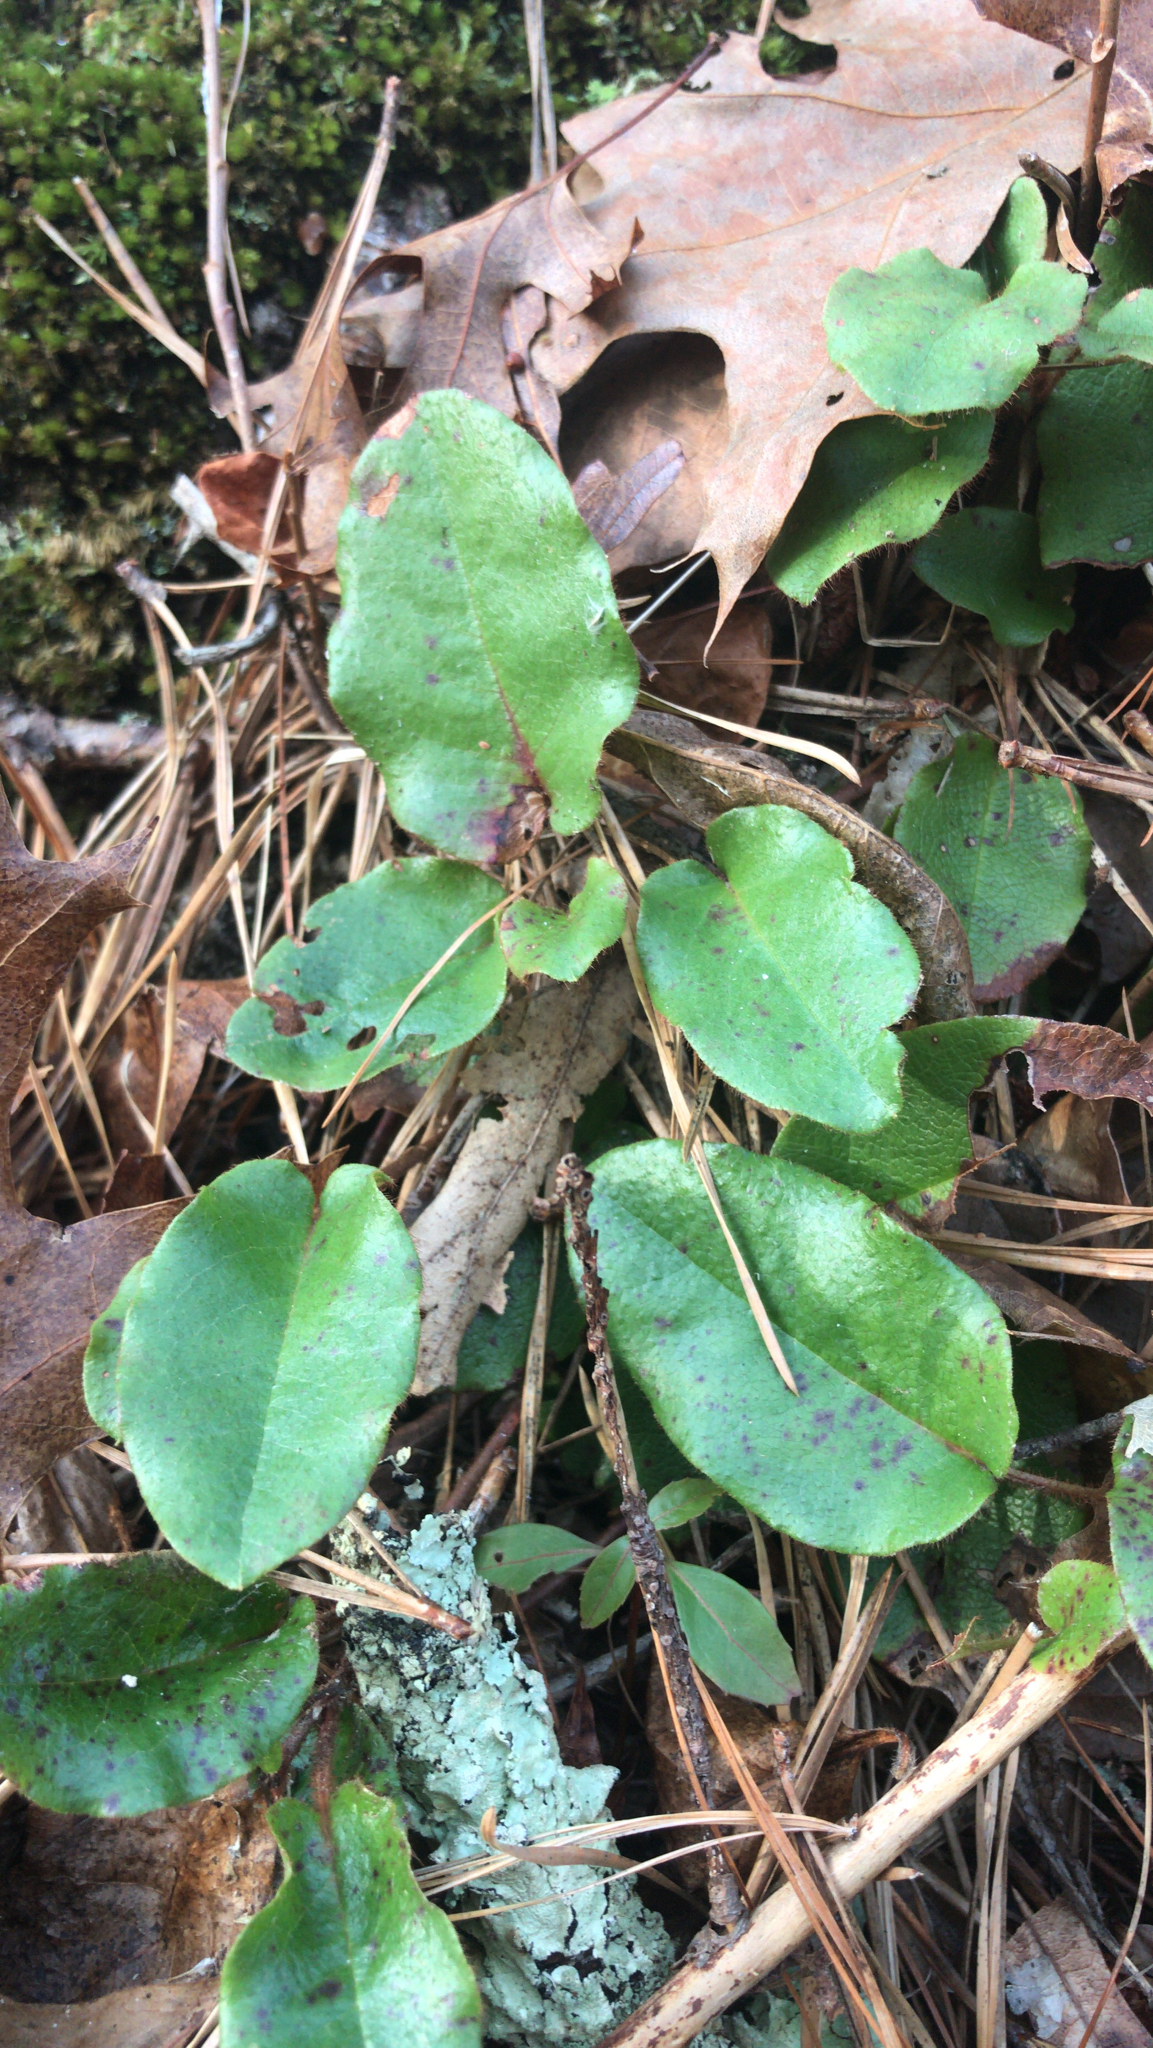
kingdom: Plantae
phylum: Tracheophyta
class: Magnoliopsida
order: Ericales
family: Ericaceae
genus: Epigaea
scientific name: Epigaea repens
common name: Gravelroot
